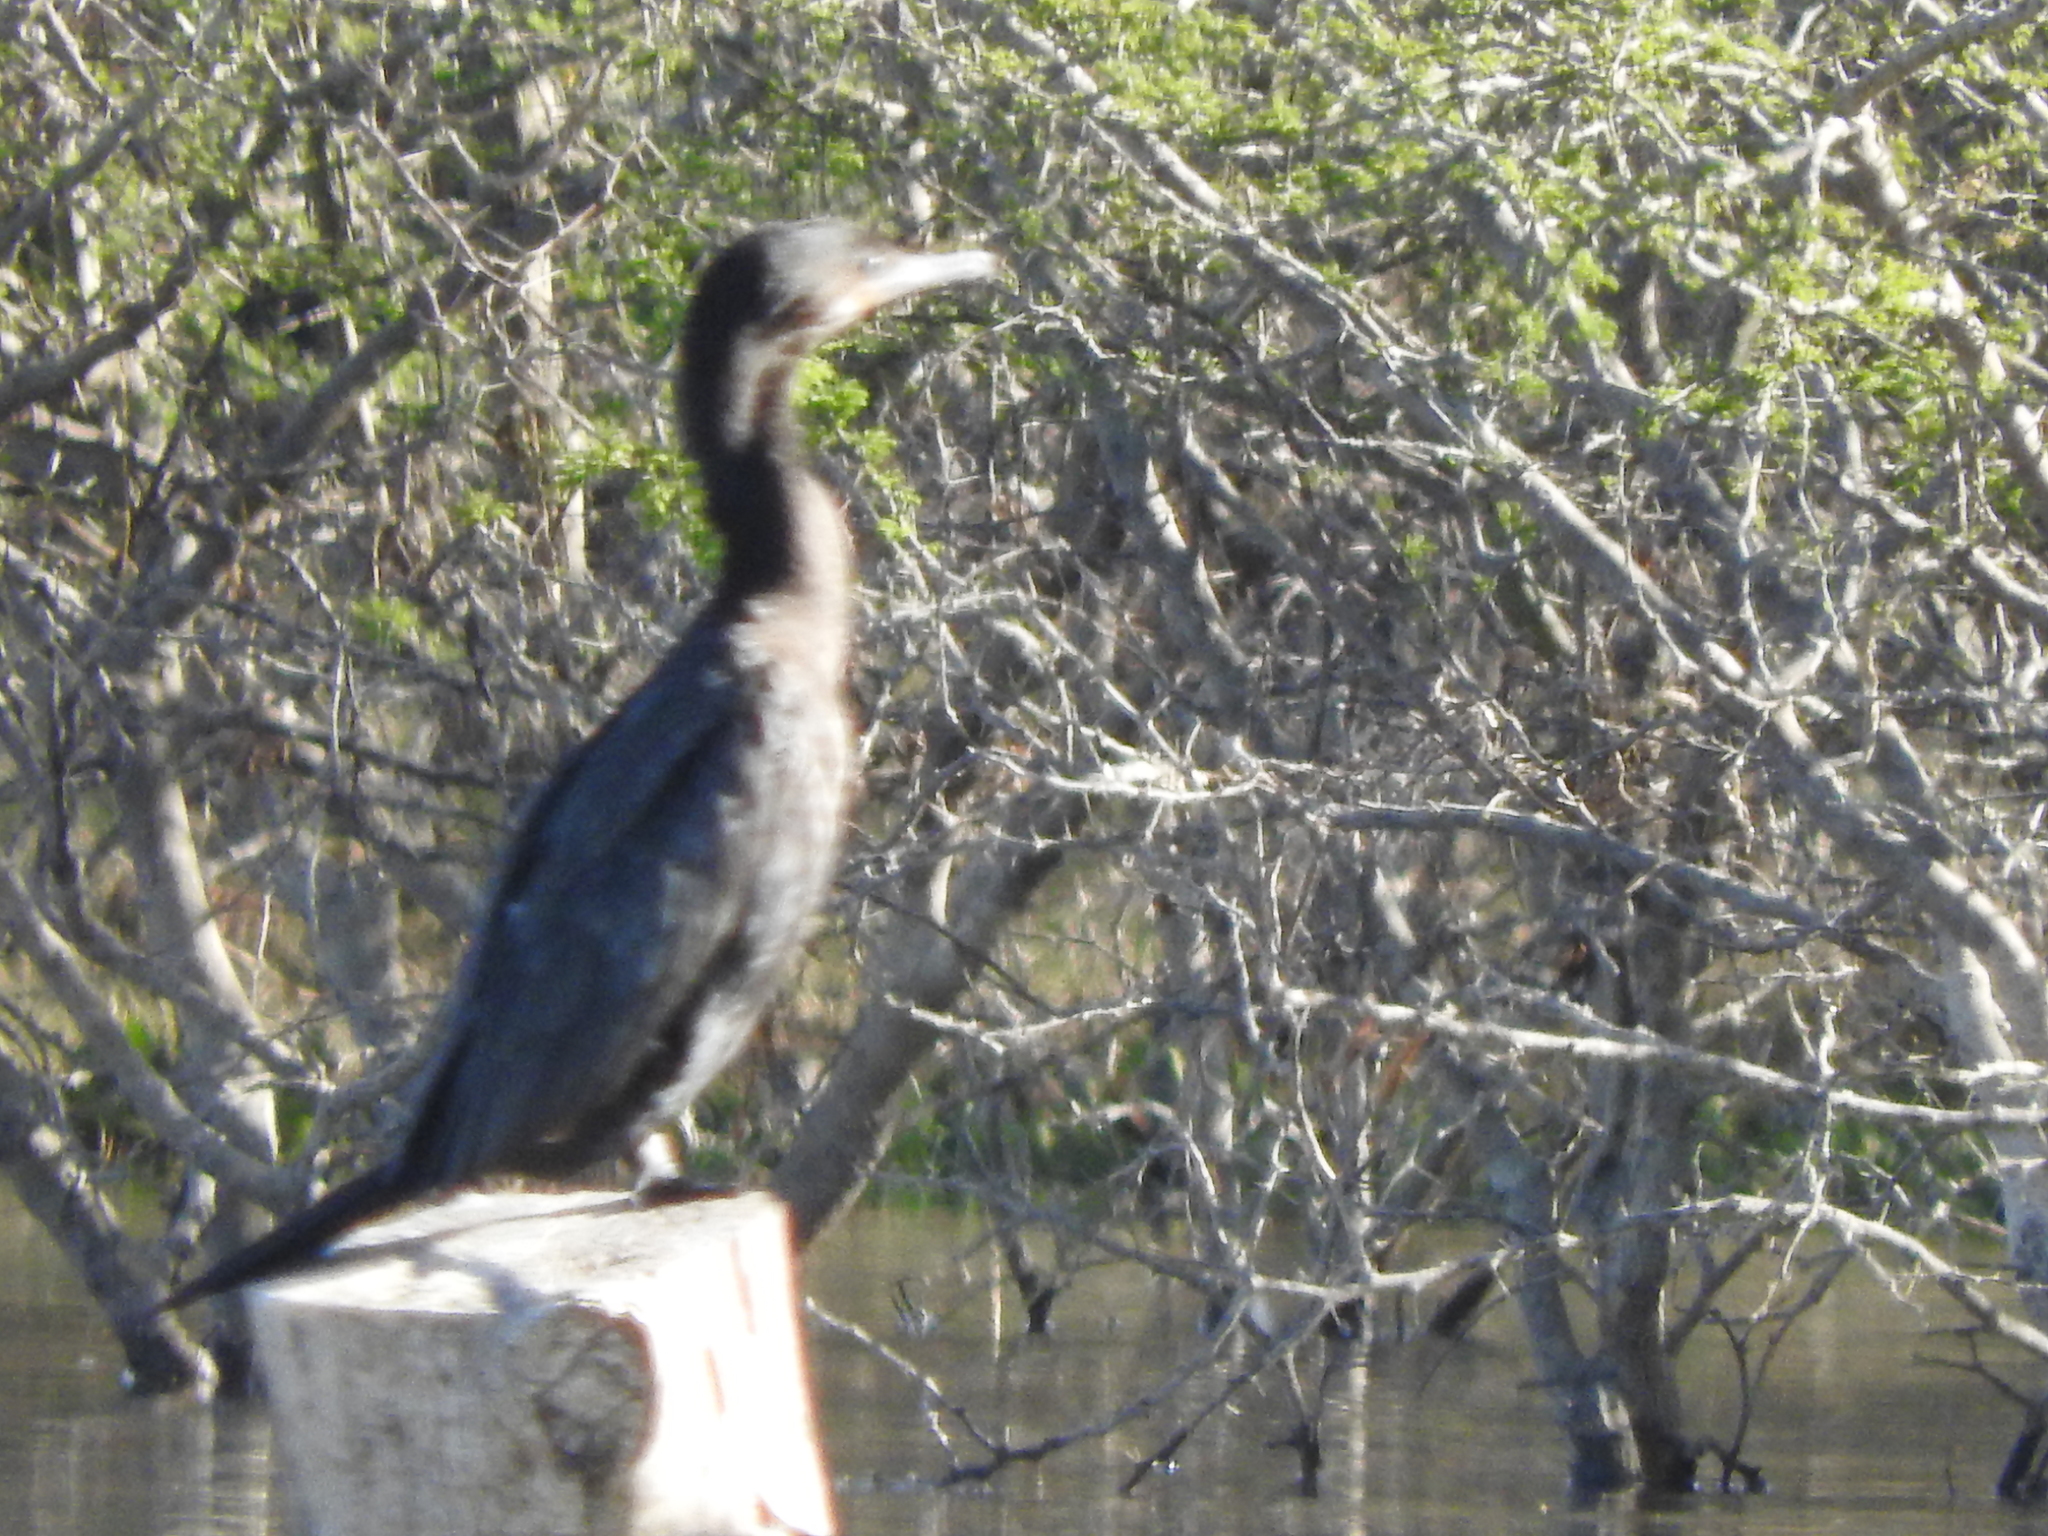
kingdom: Animalia
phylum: Chordata
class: Aves
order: Suliformes
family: Phalacrocoracidae
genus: Phalacrocorax
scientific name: Phalacrocorax brasilianus
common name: Neotropic cormorant
